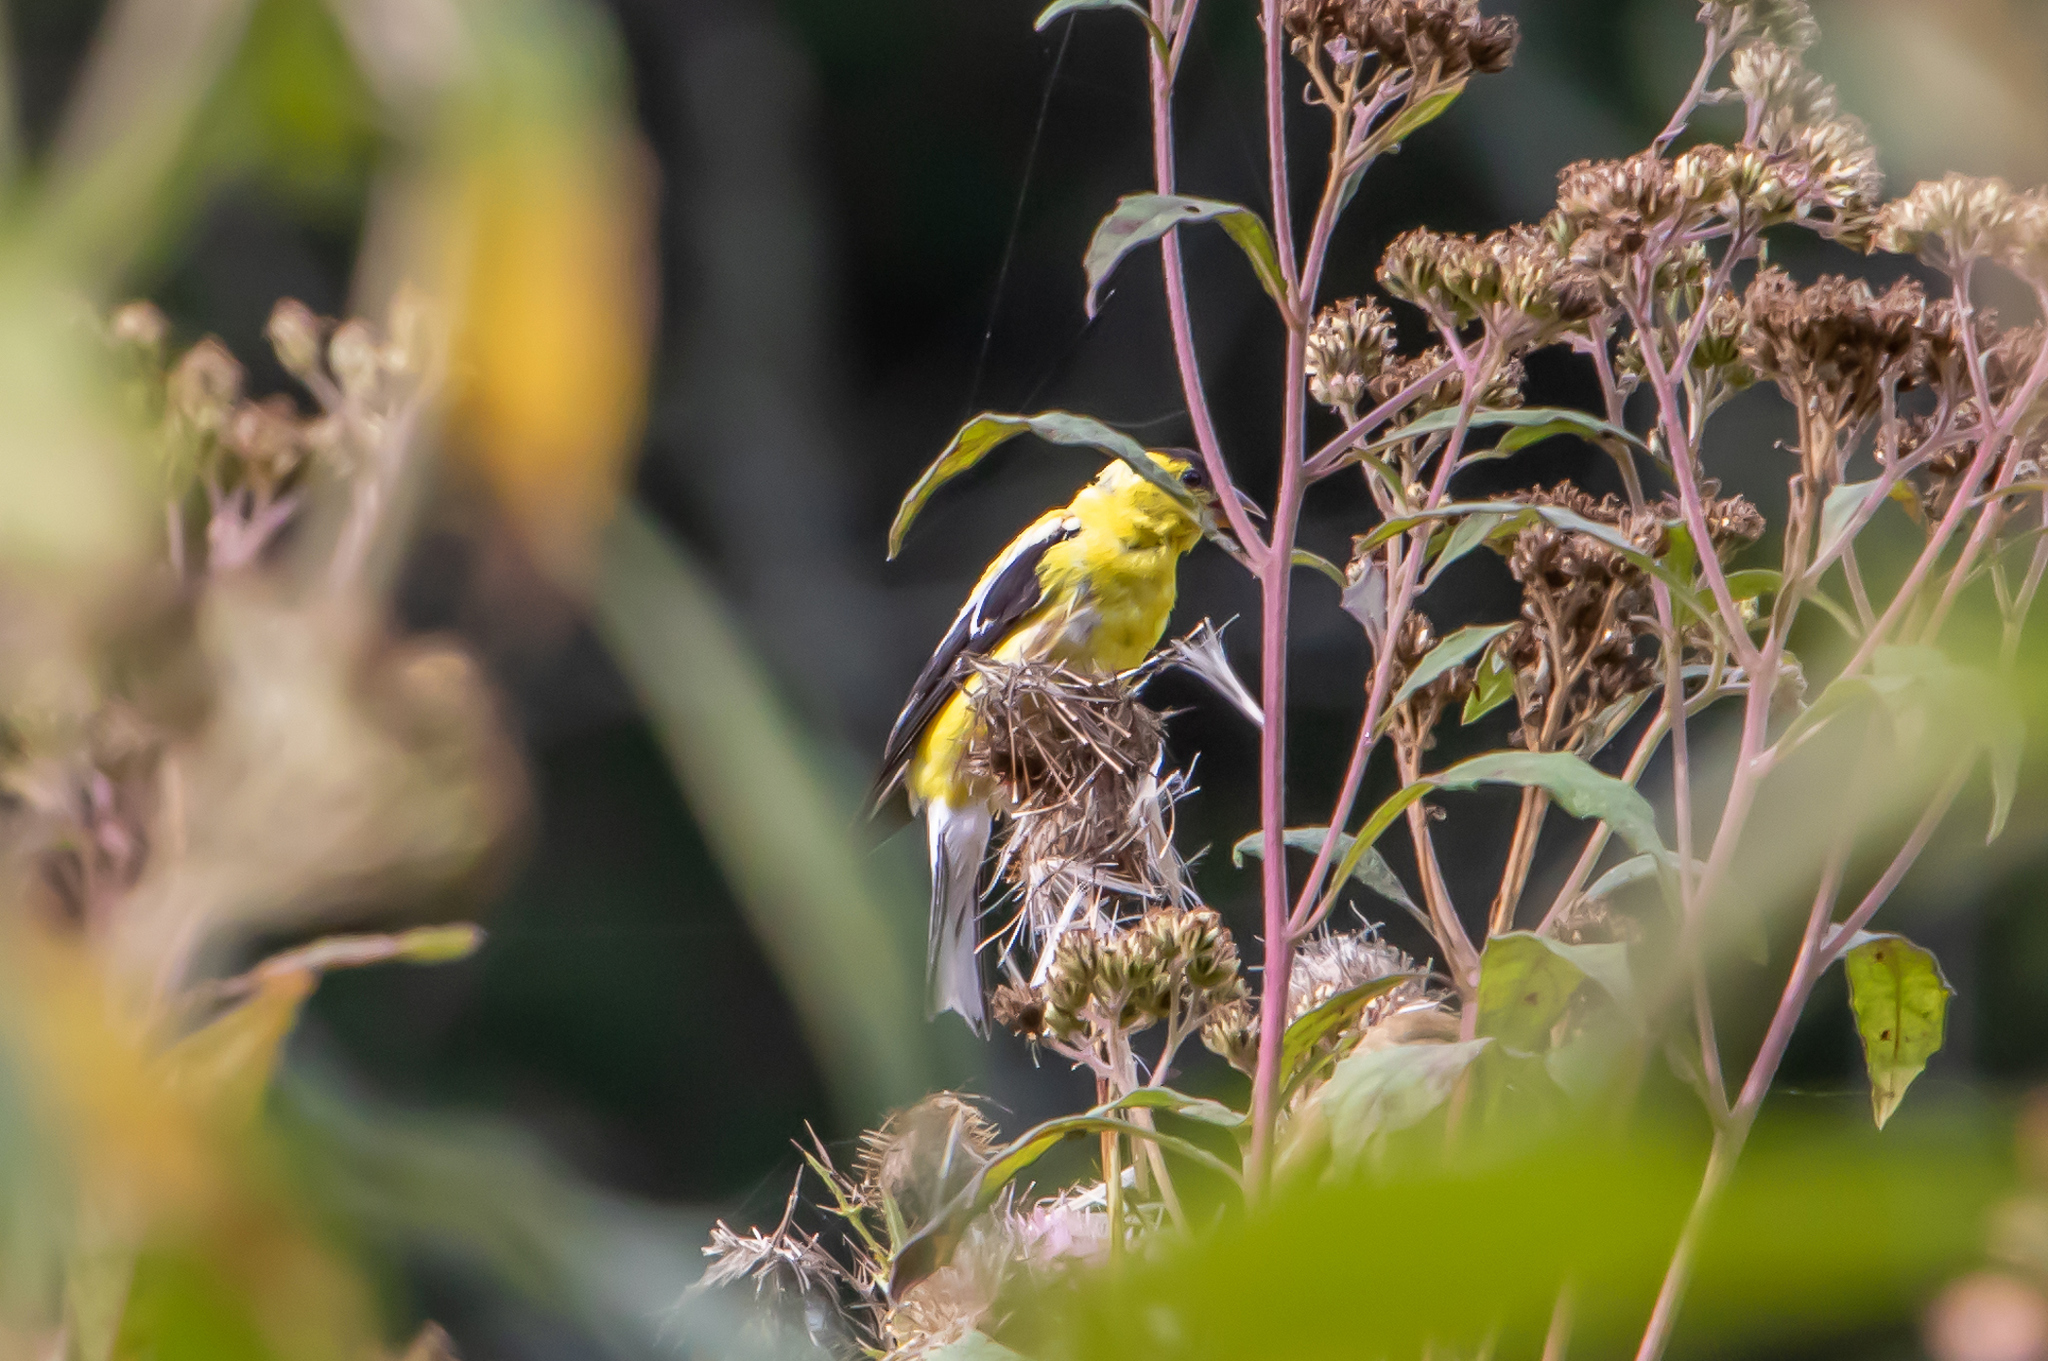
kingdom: Animalia
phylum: Chordata
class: Aves
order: Passeriformes
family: Fringillidae
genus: Spinus
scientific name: Spinus tristis
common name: American goldfinch
